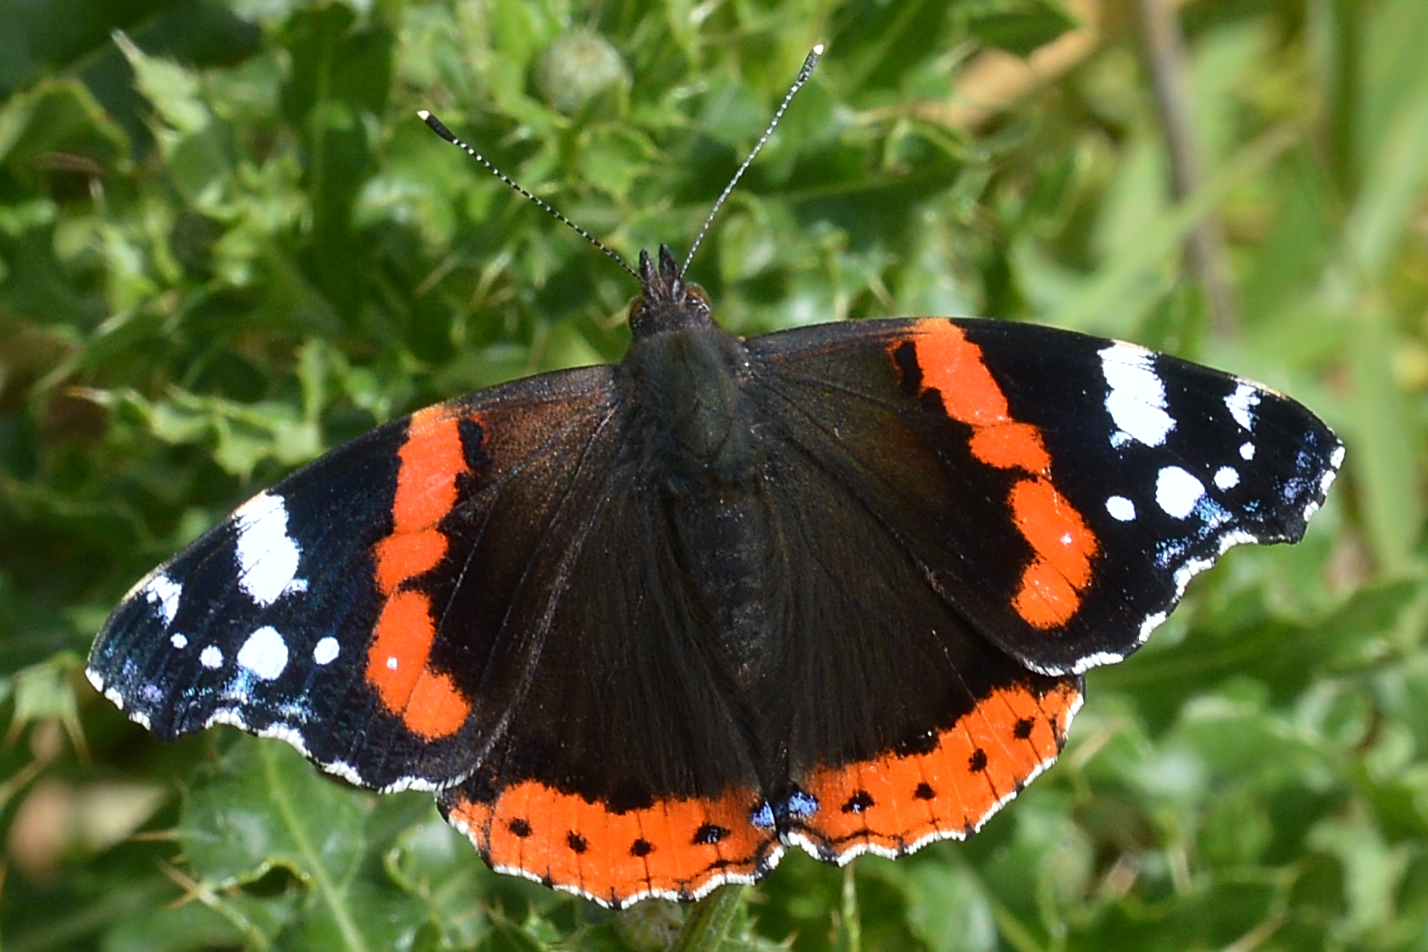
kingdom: Animalia
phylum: Arthropoda
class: Insecta
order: Lepidoptera
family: Nymphalidae
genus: Vanessa
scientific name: Vanessa atalanta
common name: Red admiral
